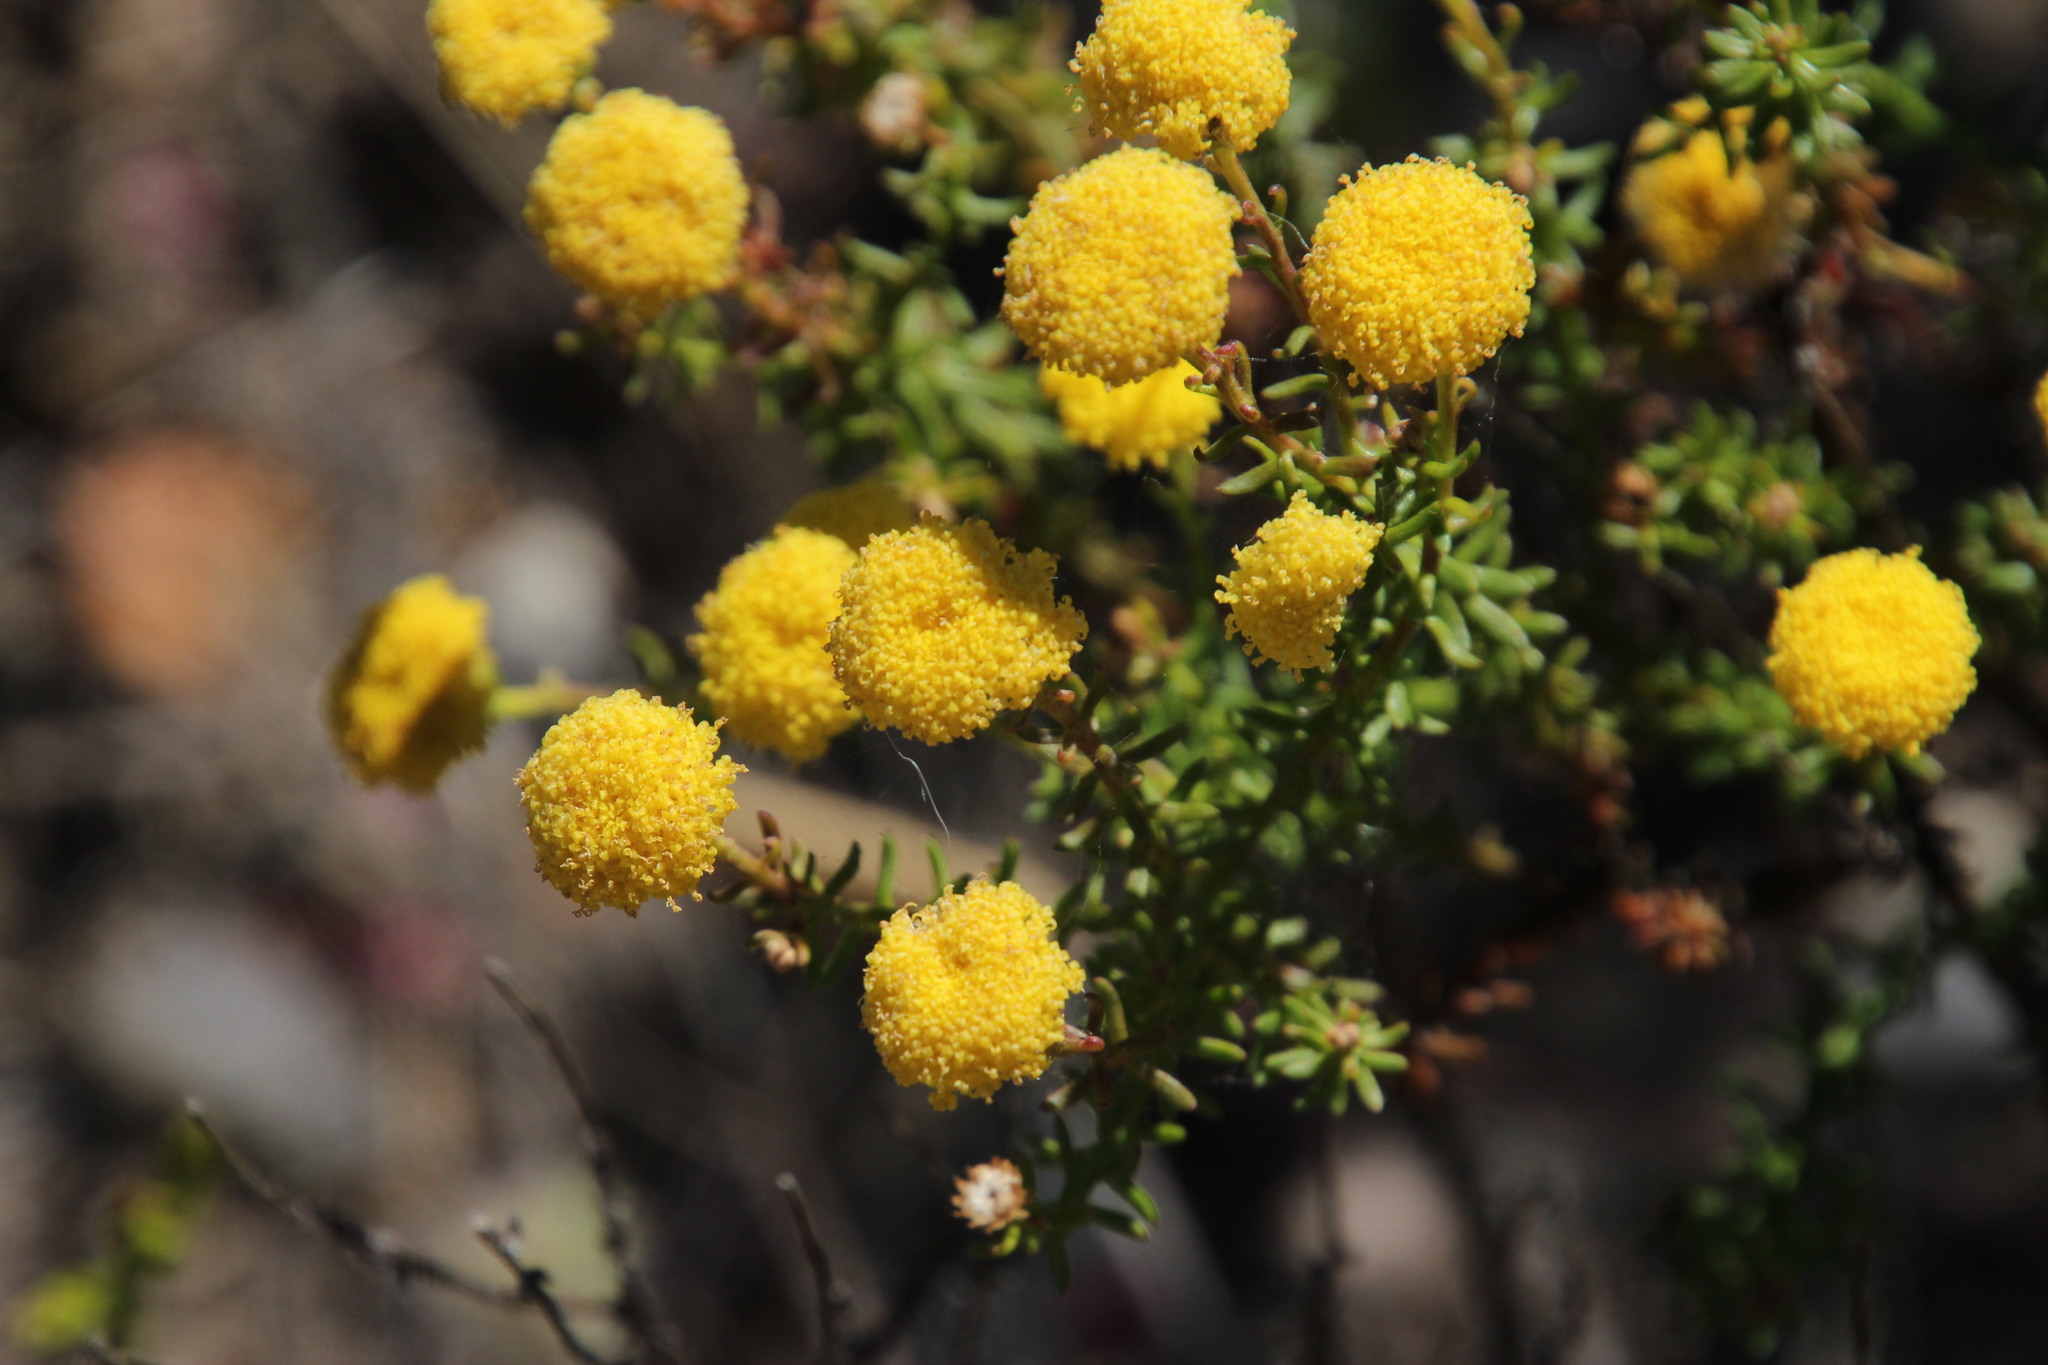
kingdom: Plantae
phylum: Tracheophyta
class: Magnoliopsida
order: Asterales
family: Asteraceae
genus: Chrysocoma
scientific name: Chrysocoma cernua
